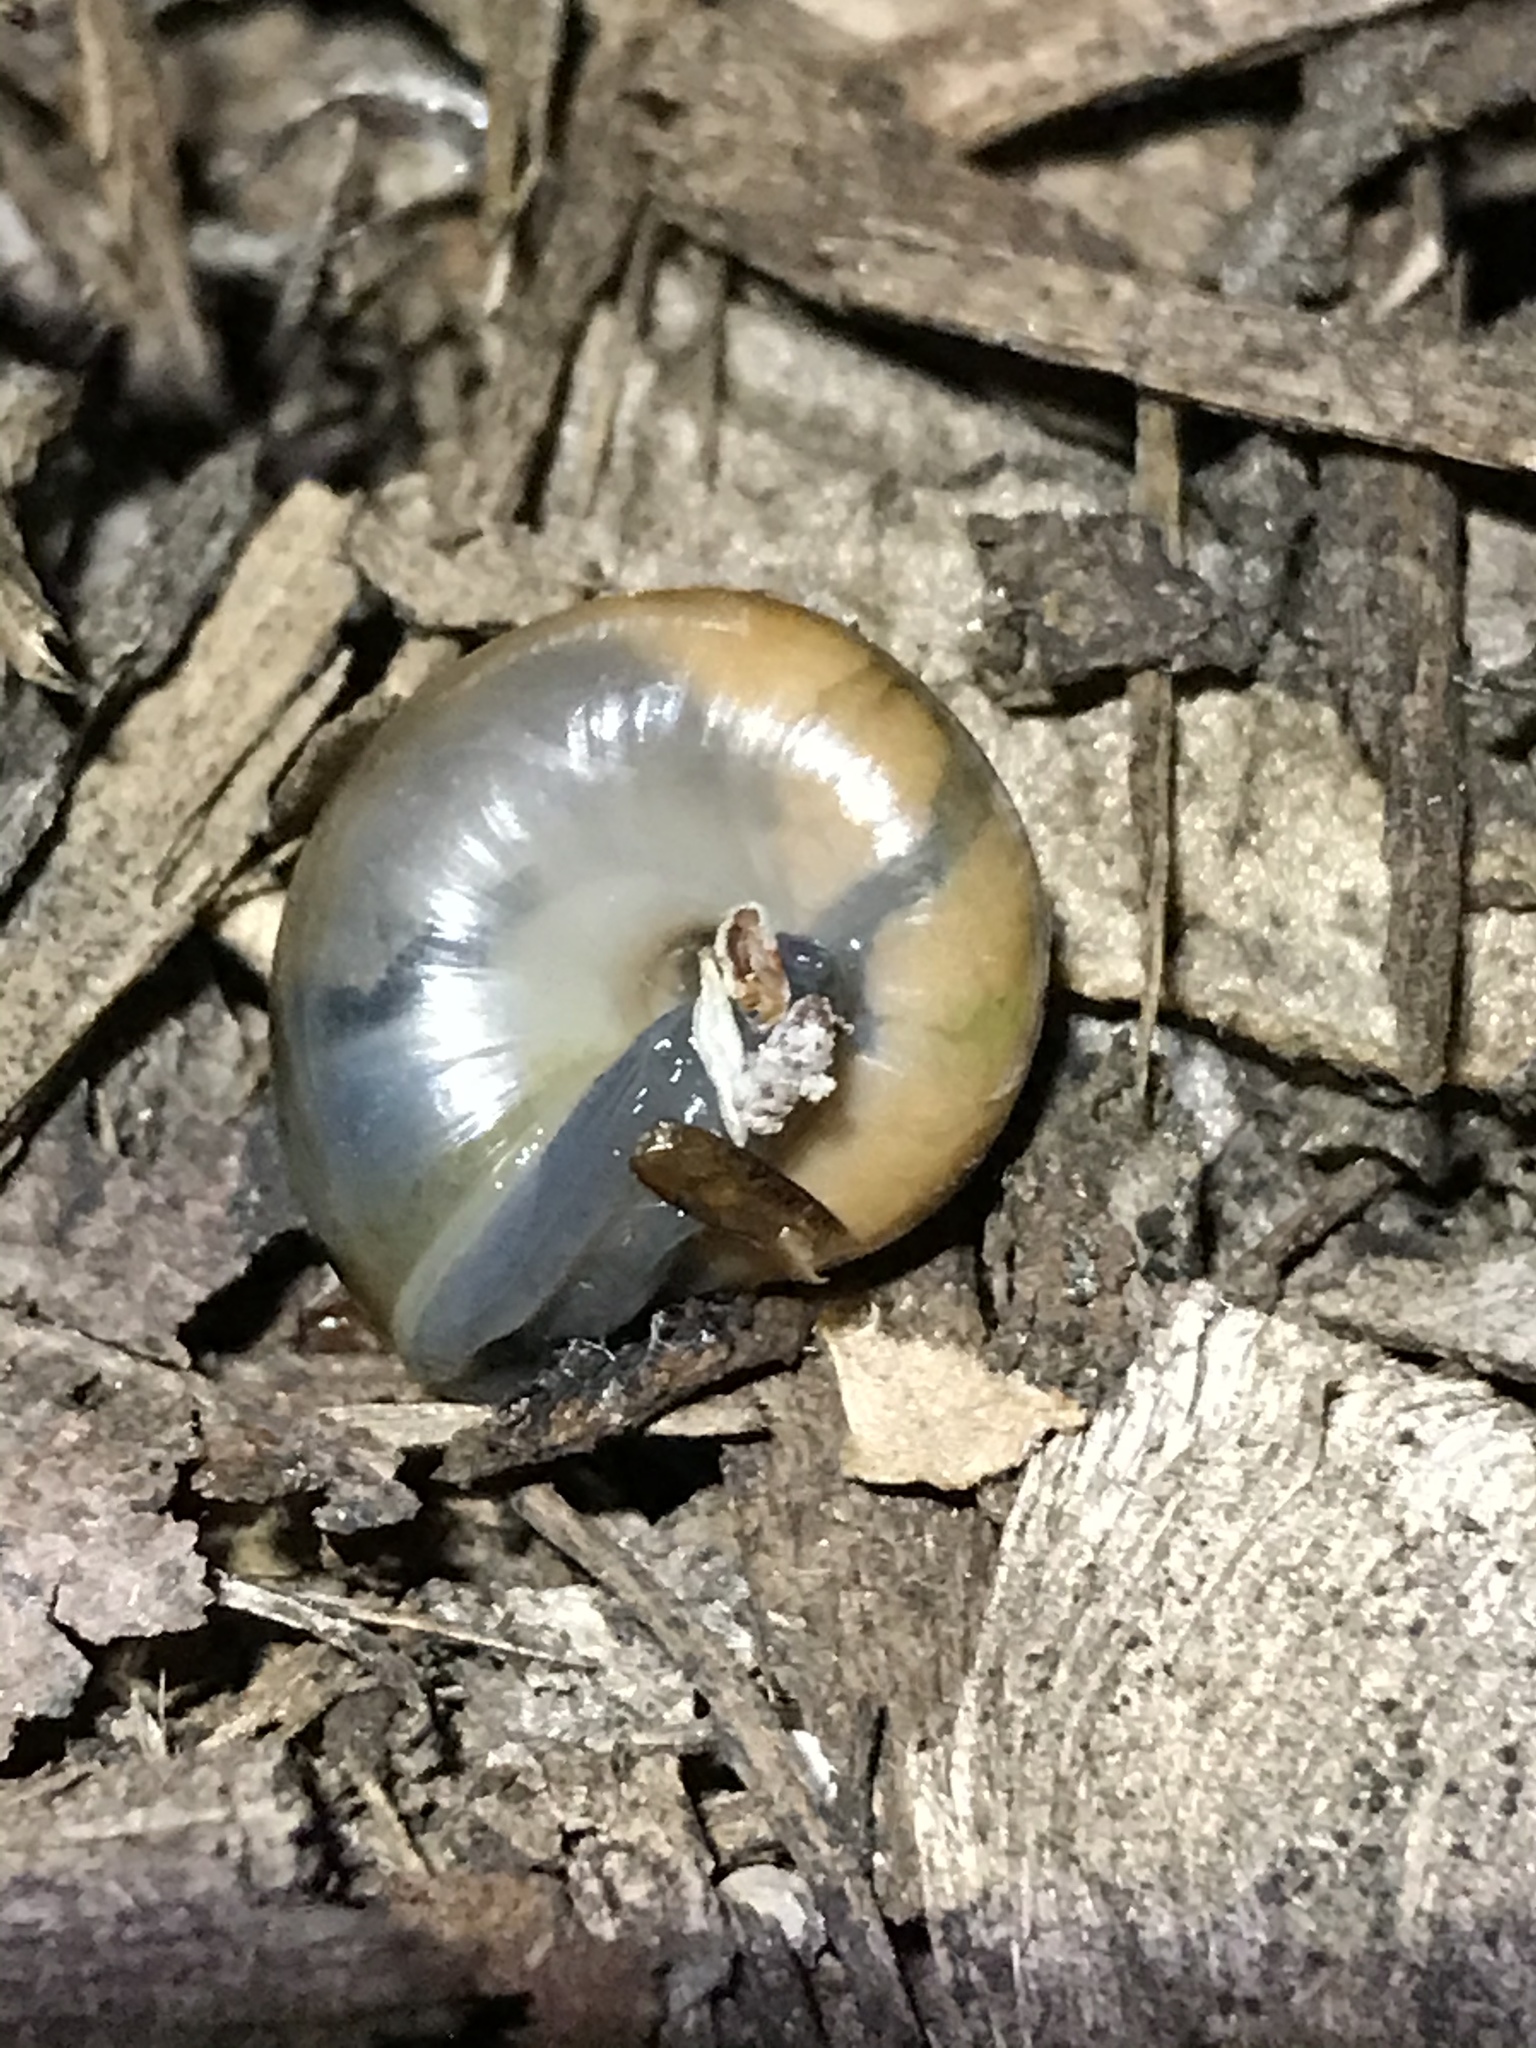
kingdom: Animalia
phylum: Mollusca
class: Gastropoda
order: Stylommatophora
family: Oxychilidae
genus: Oxychilus
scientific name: Oxychilus
